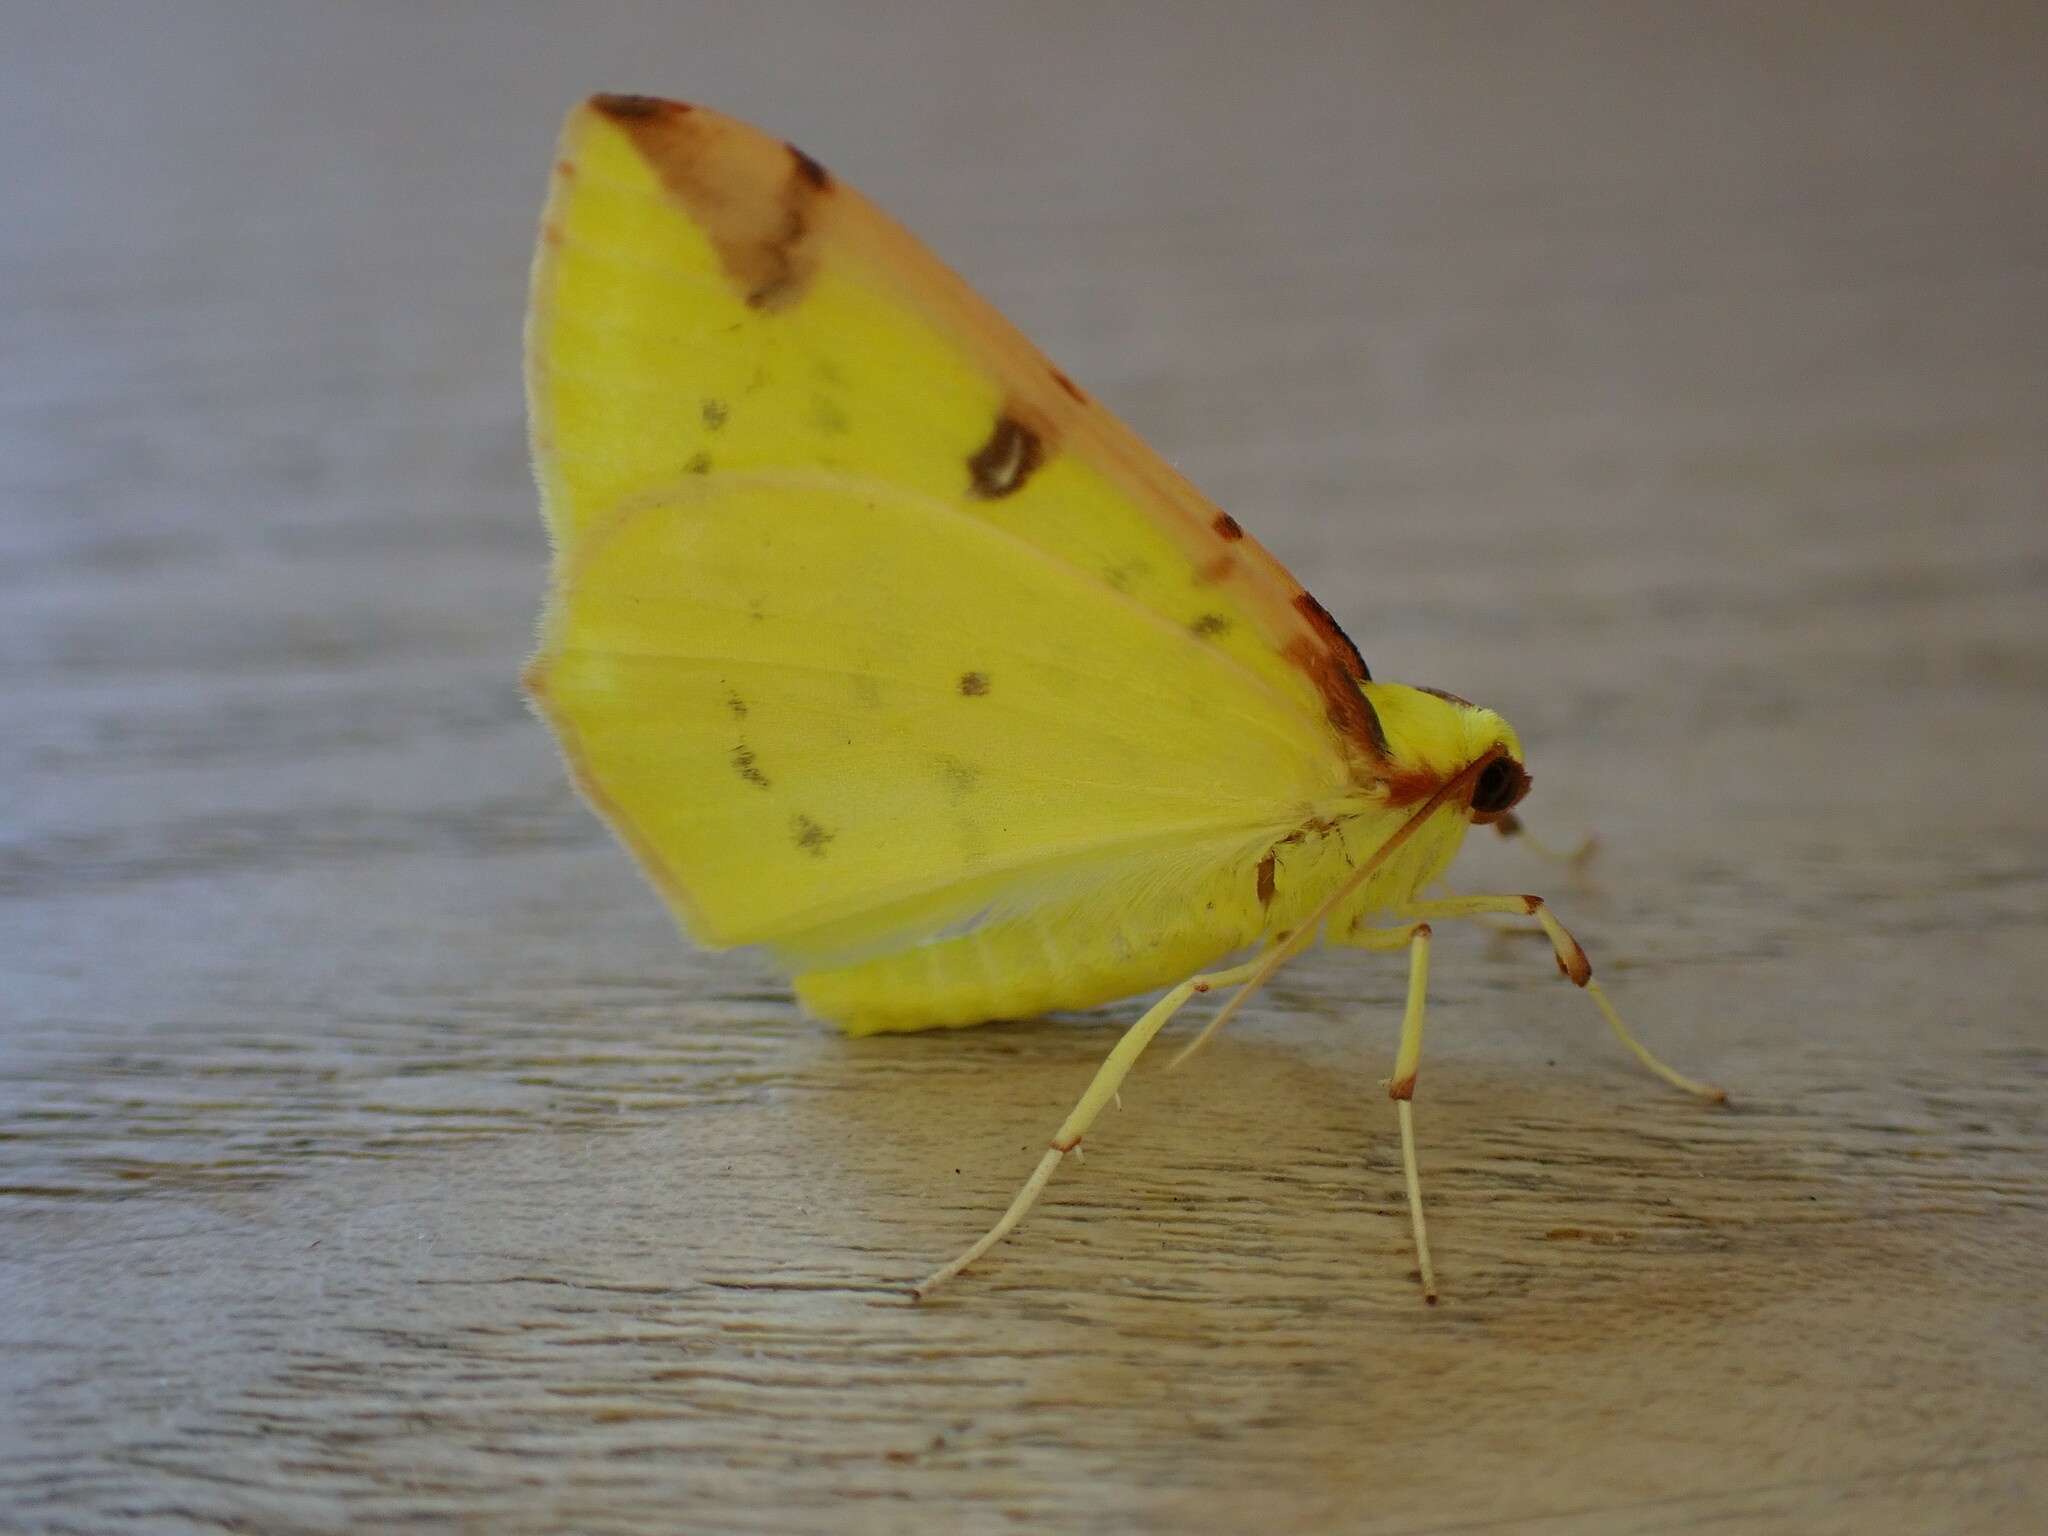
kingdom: Animalia
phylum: Arthropoda
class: Insecta
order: Lepidoptera
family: Geometridae
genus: Opisthograptis
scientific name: Opisthograptis luteolata
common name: Brimstone moth
